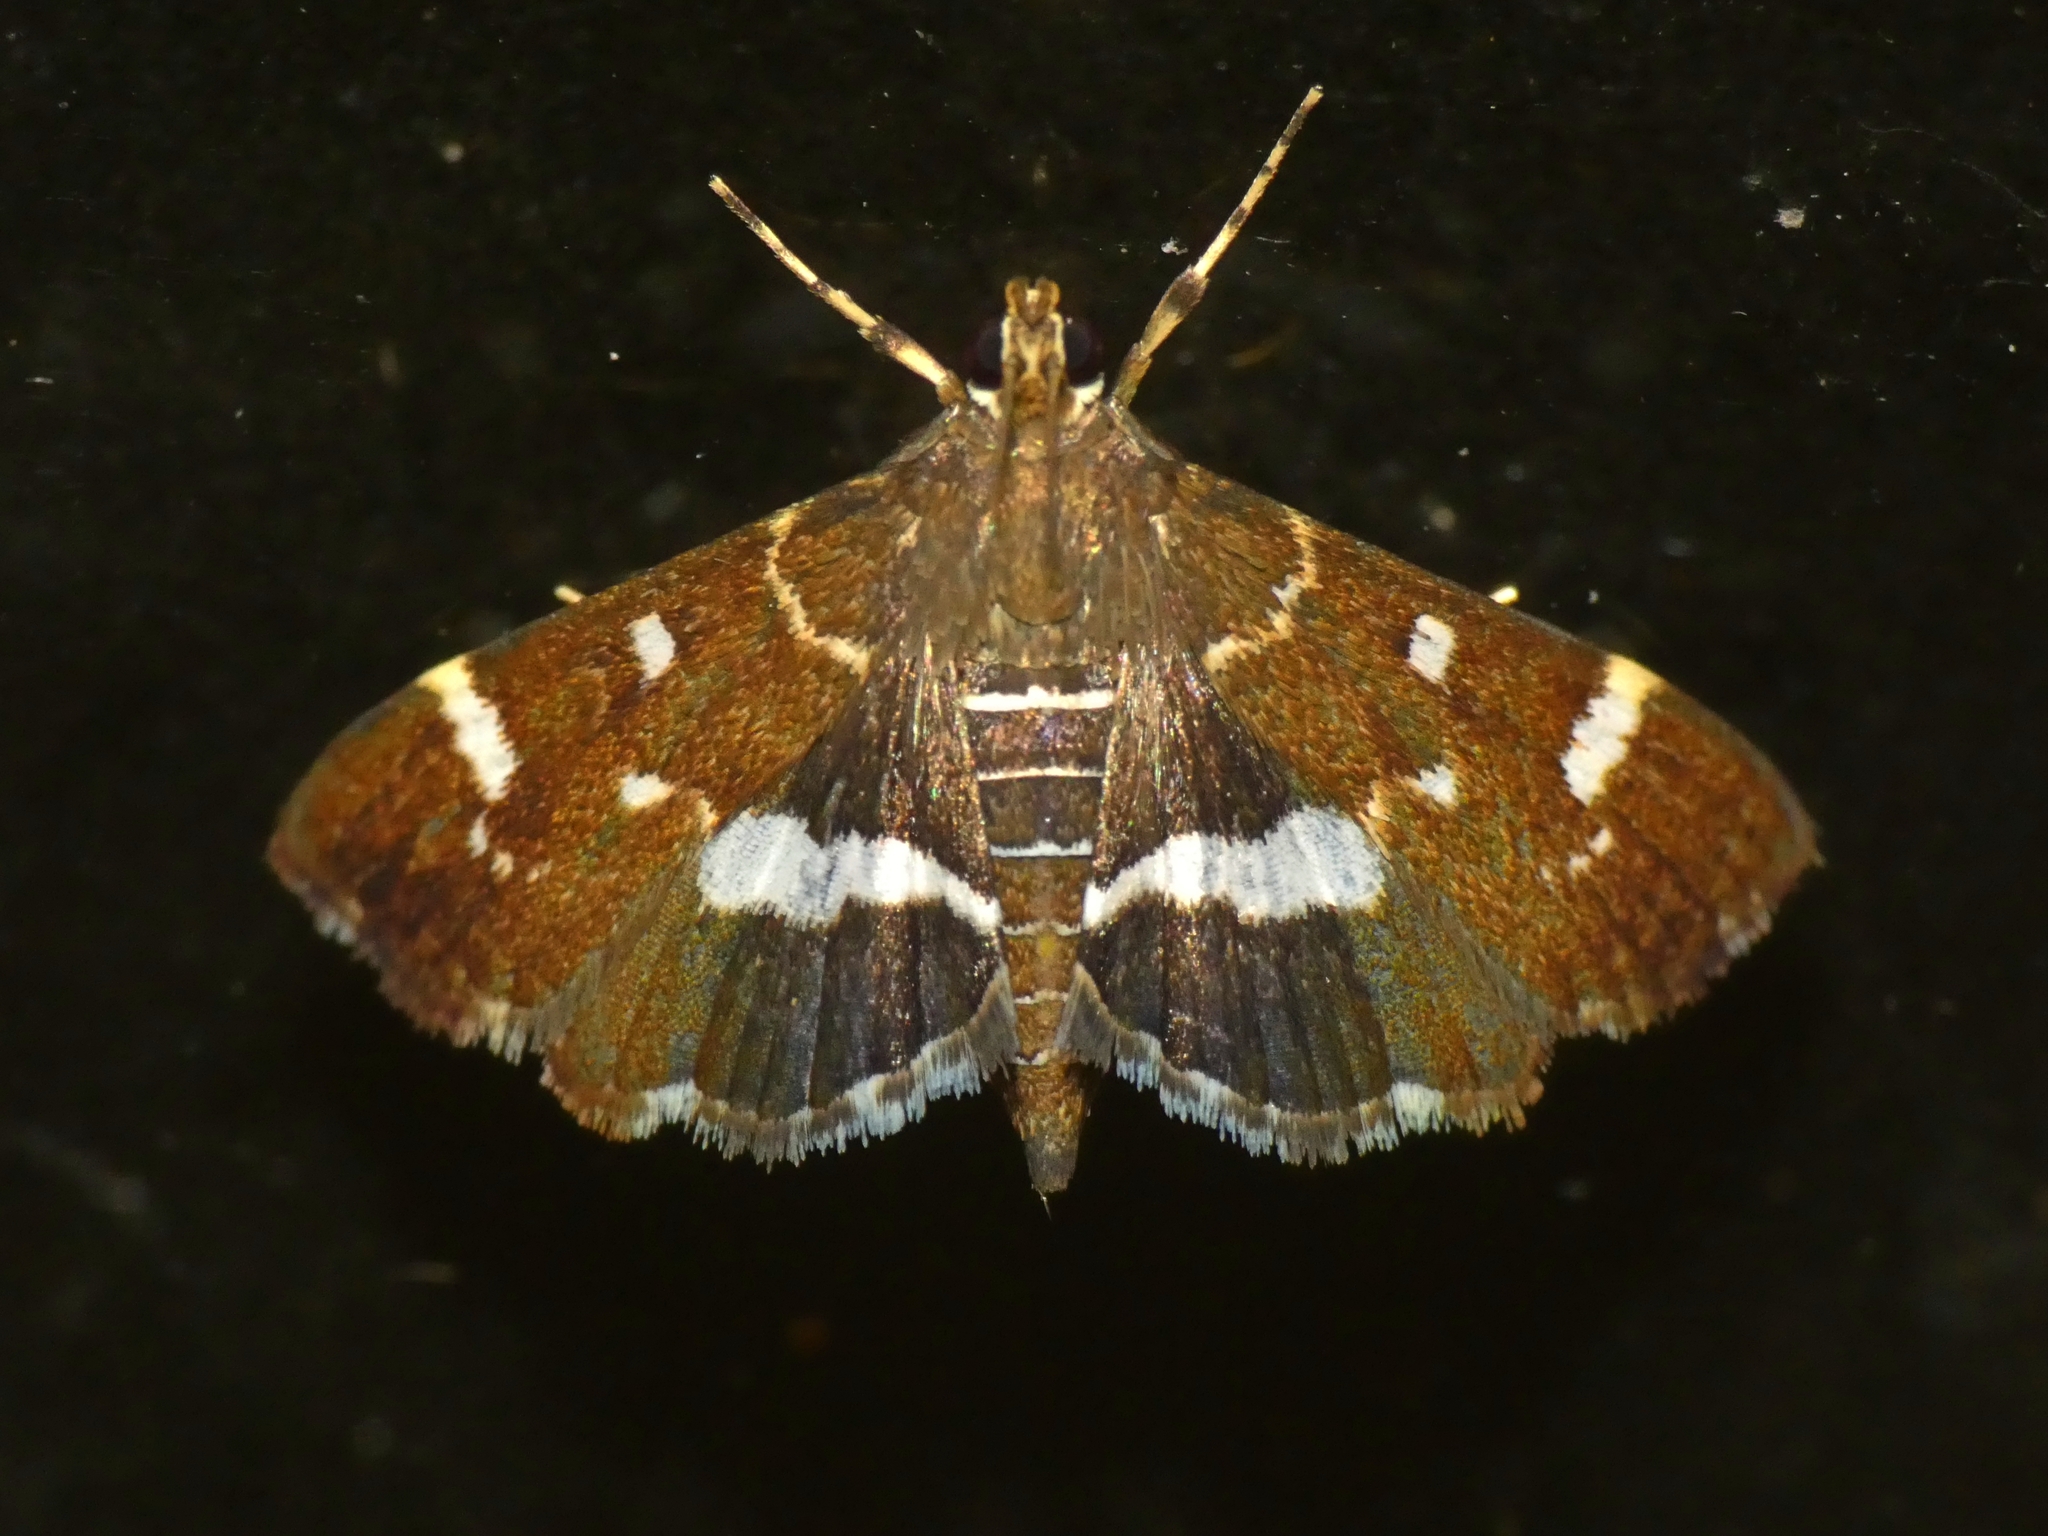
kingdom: Animalia
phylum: Arthropoda
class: Insecta
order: Lepidoptera
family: Crambidae
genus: Hymenia
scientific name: Hymenia perspectalis
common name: Spotted beet webworm
